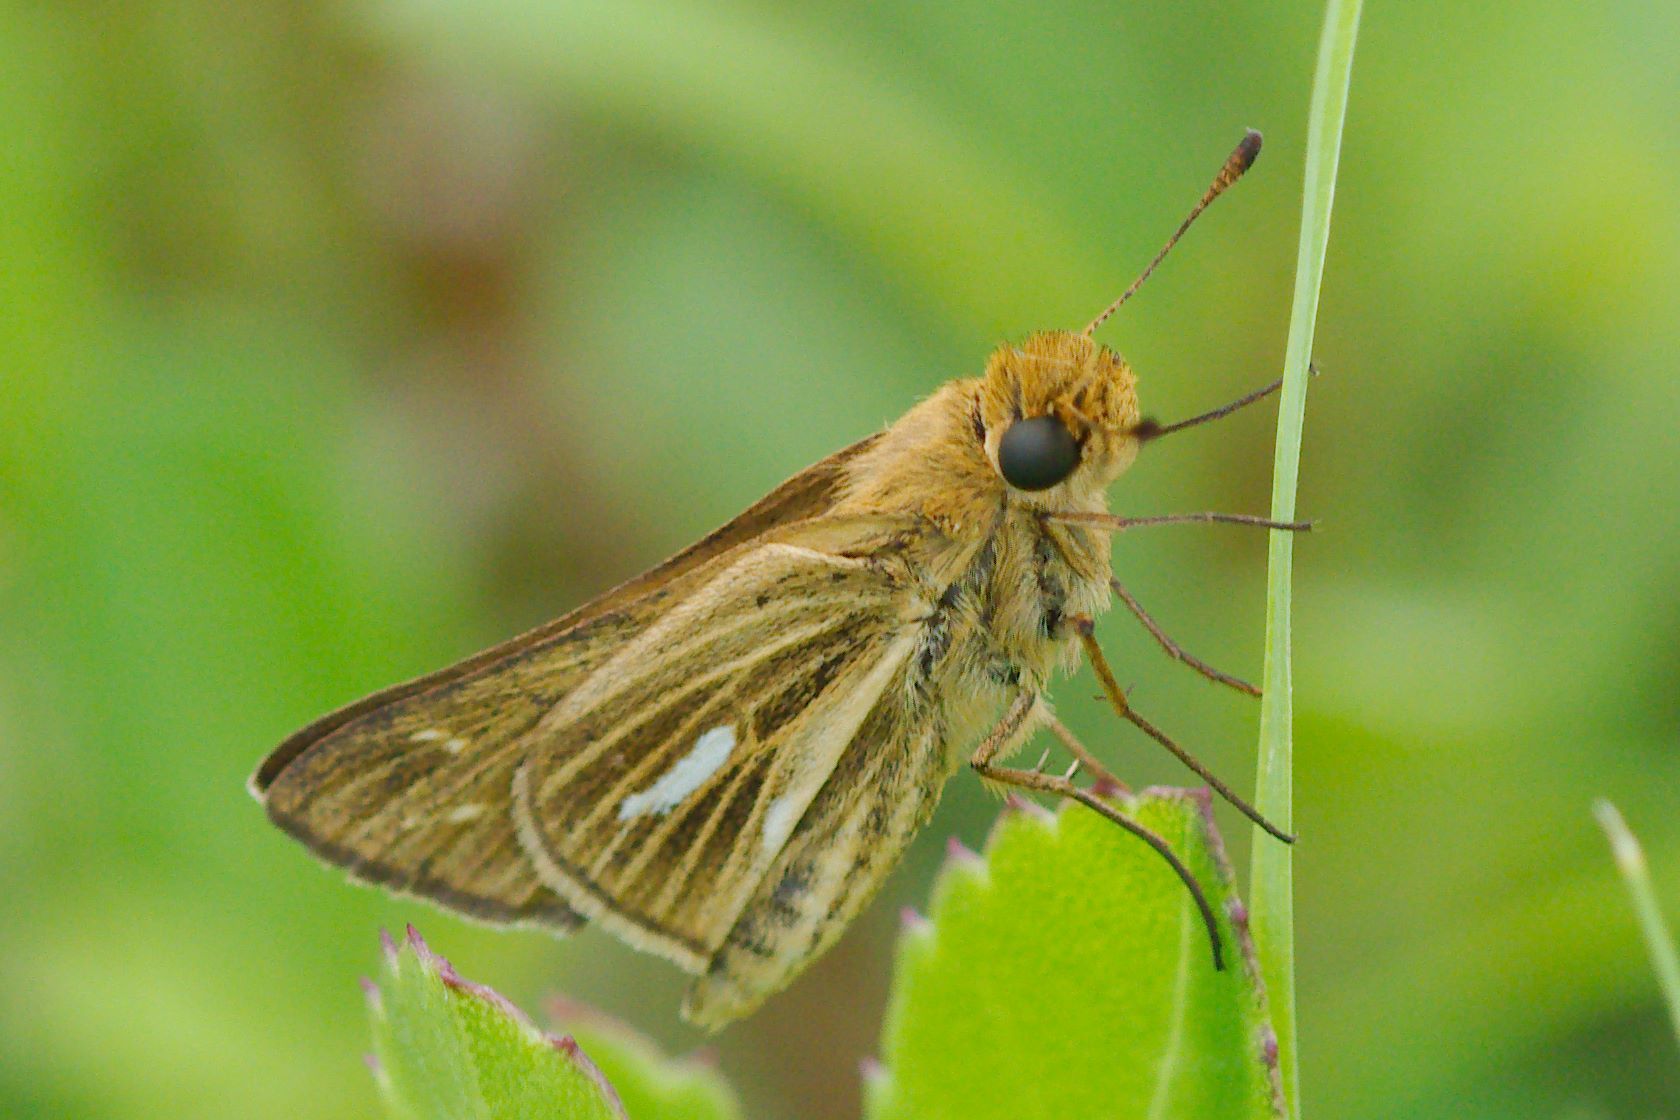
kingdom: Animalia
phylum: Arthropoda
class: Insecta
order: Lepidoptera
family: Hesperiidae
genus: Panoquina
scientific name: Panoquina panoquin
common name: Salt marsh skipper
